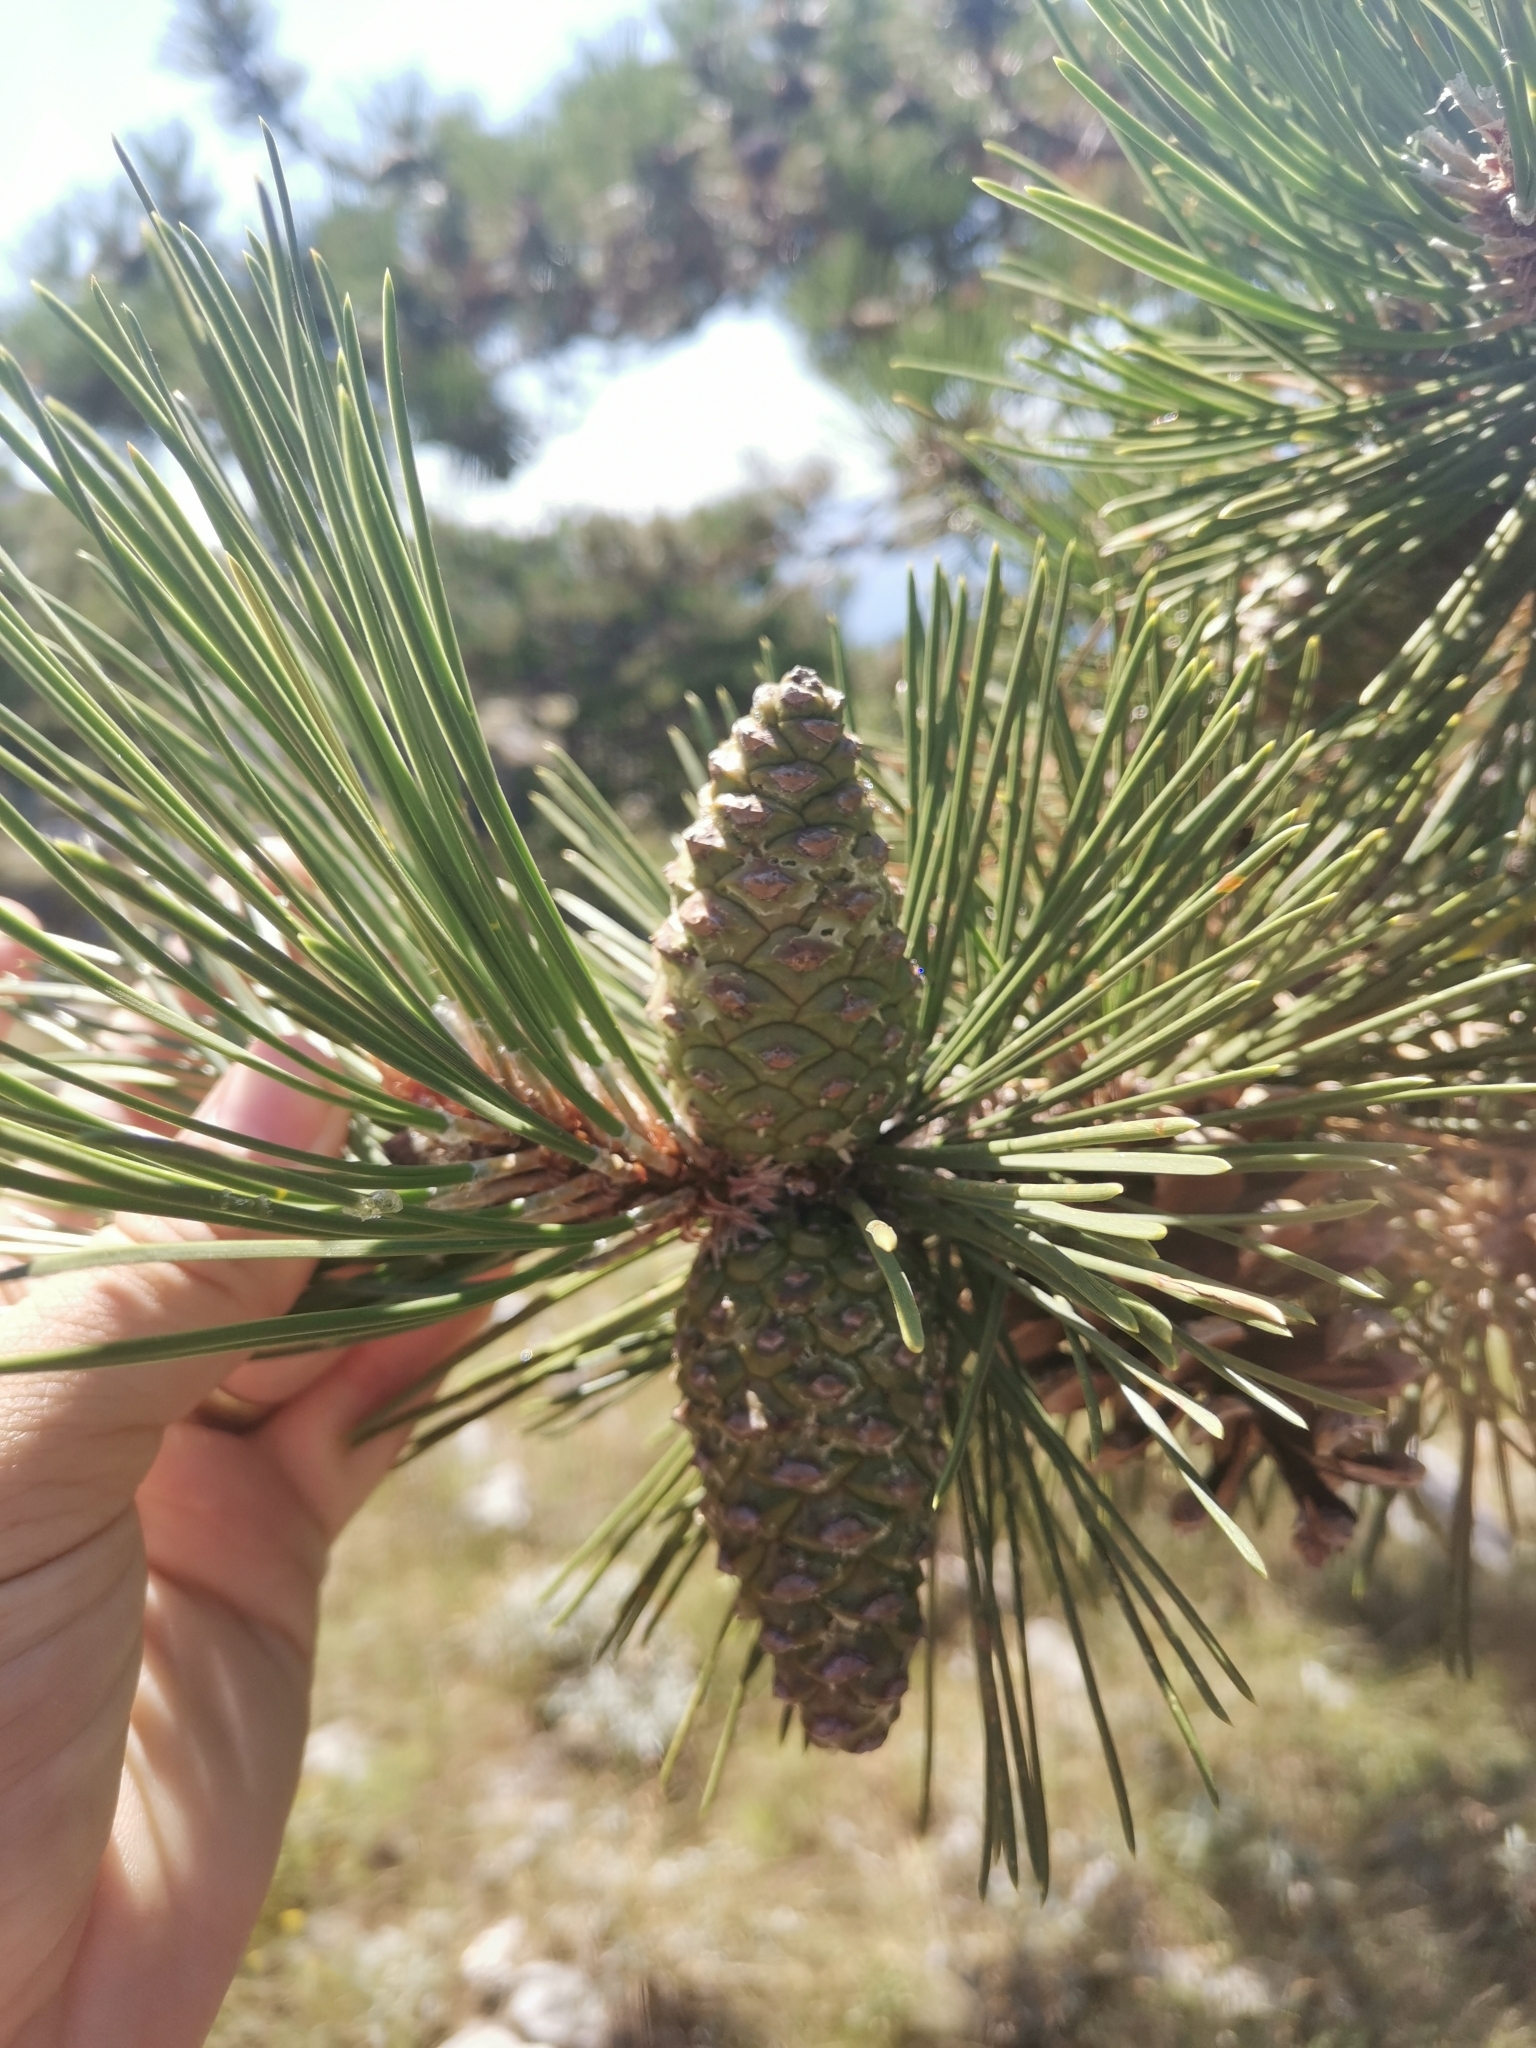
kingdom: Plantae
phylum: Tracheophyta
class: Pinopsida
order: Pinales
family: Pinaceae
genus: Pinus
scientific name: Pinus nigra
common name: Austrian pine
